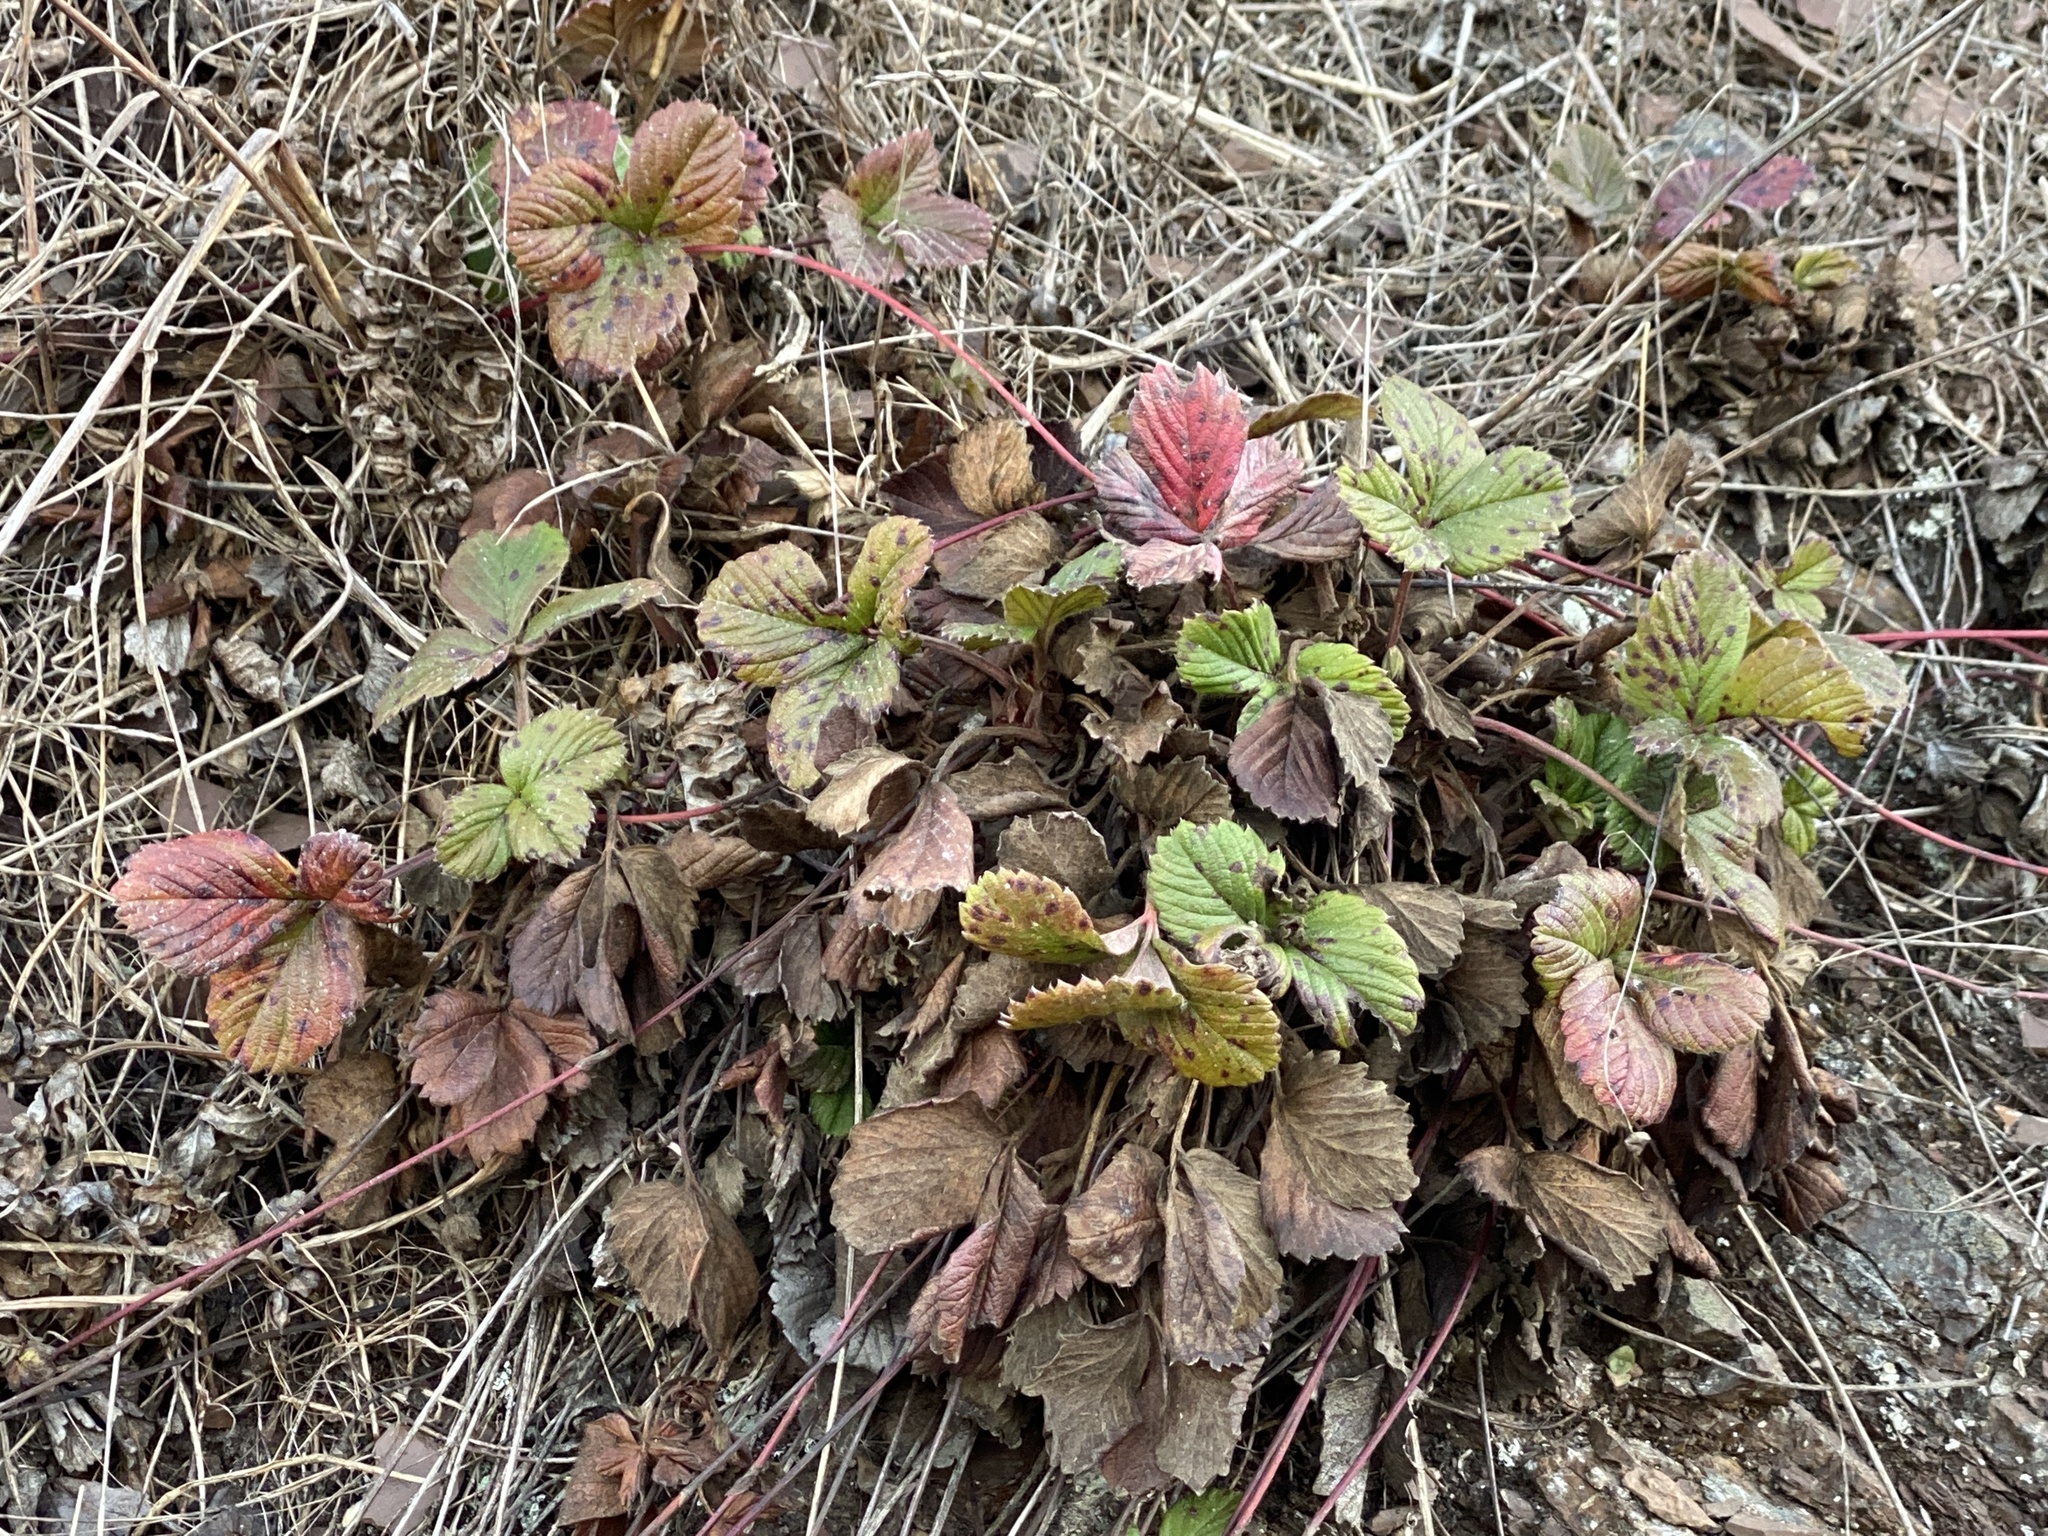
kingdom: Plantae
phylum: Tracheophyta
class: Magnoliopsida
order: Rosales
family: Rosaceae
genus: Fragaria
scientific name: Fragaria vesca
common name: Wild strawberry
